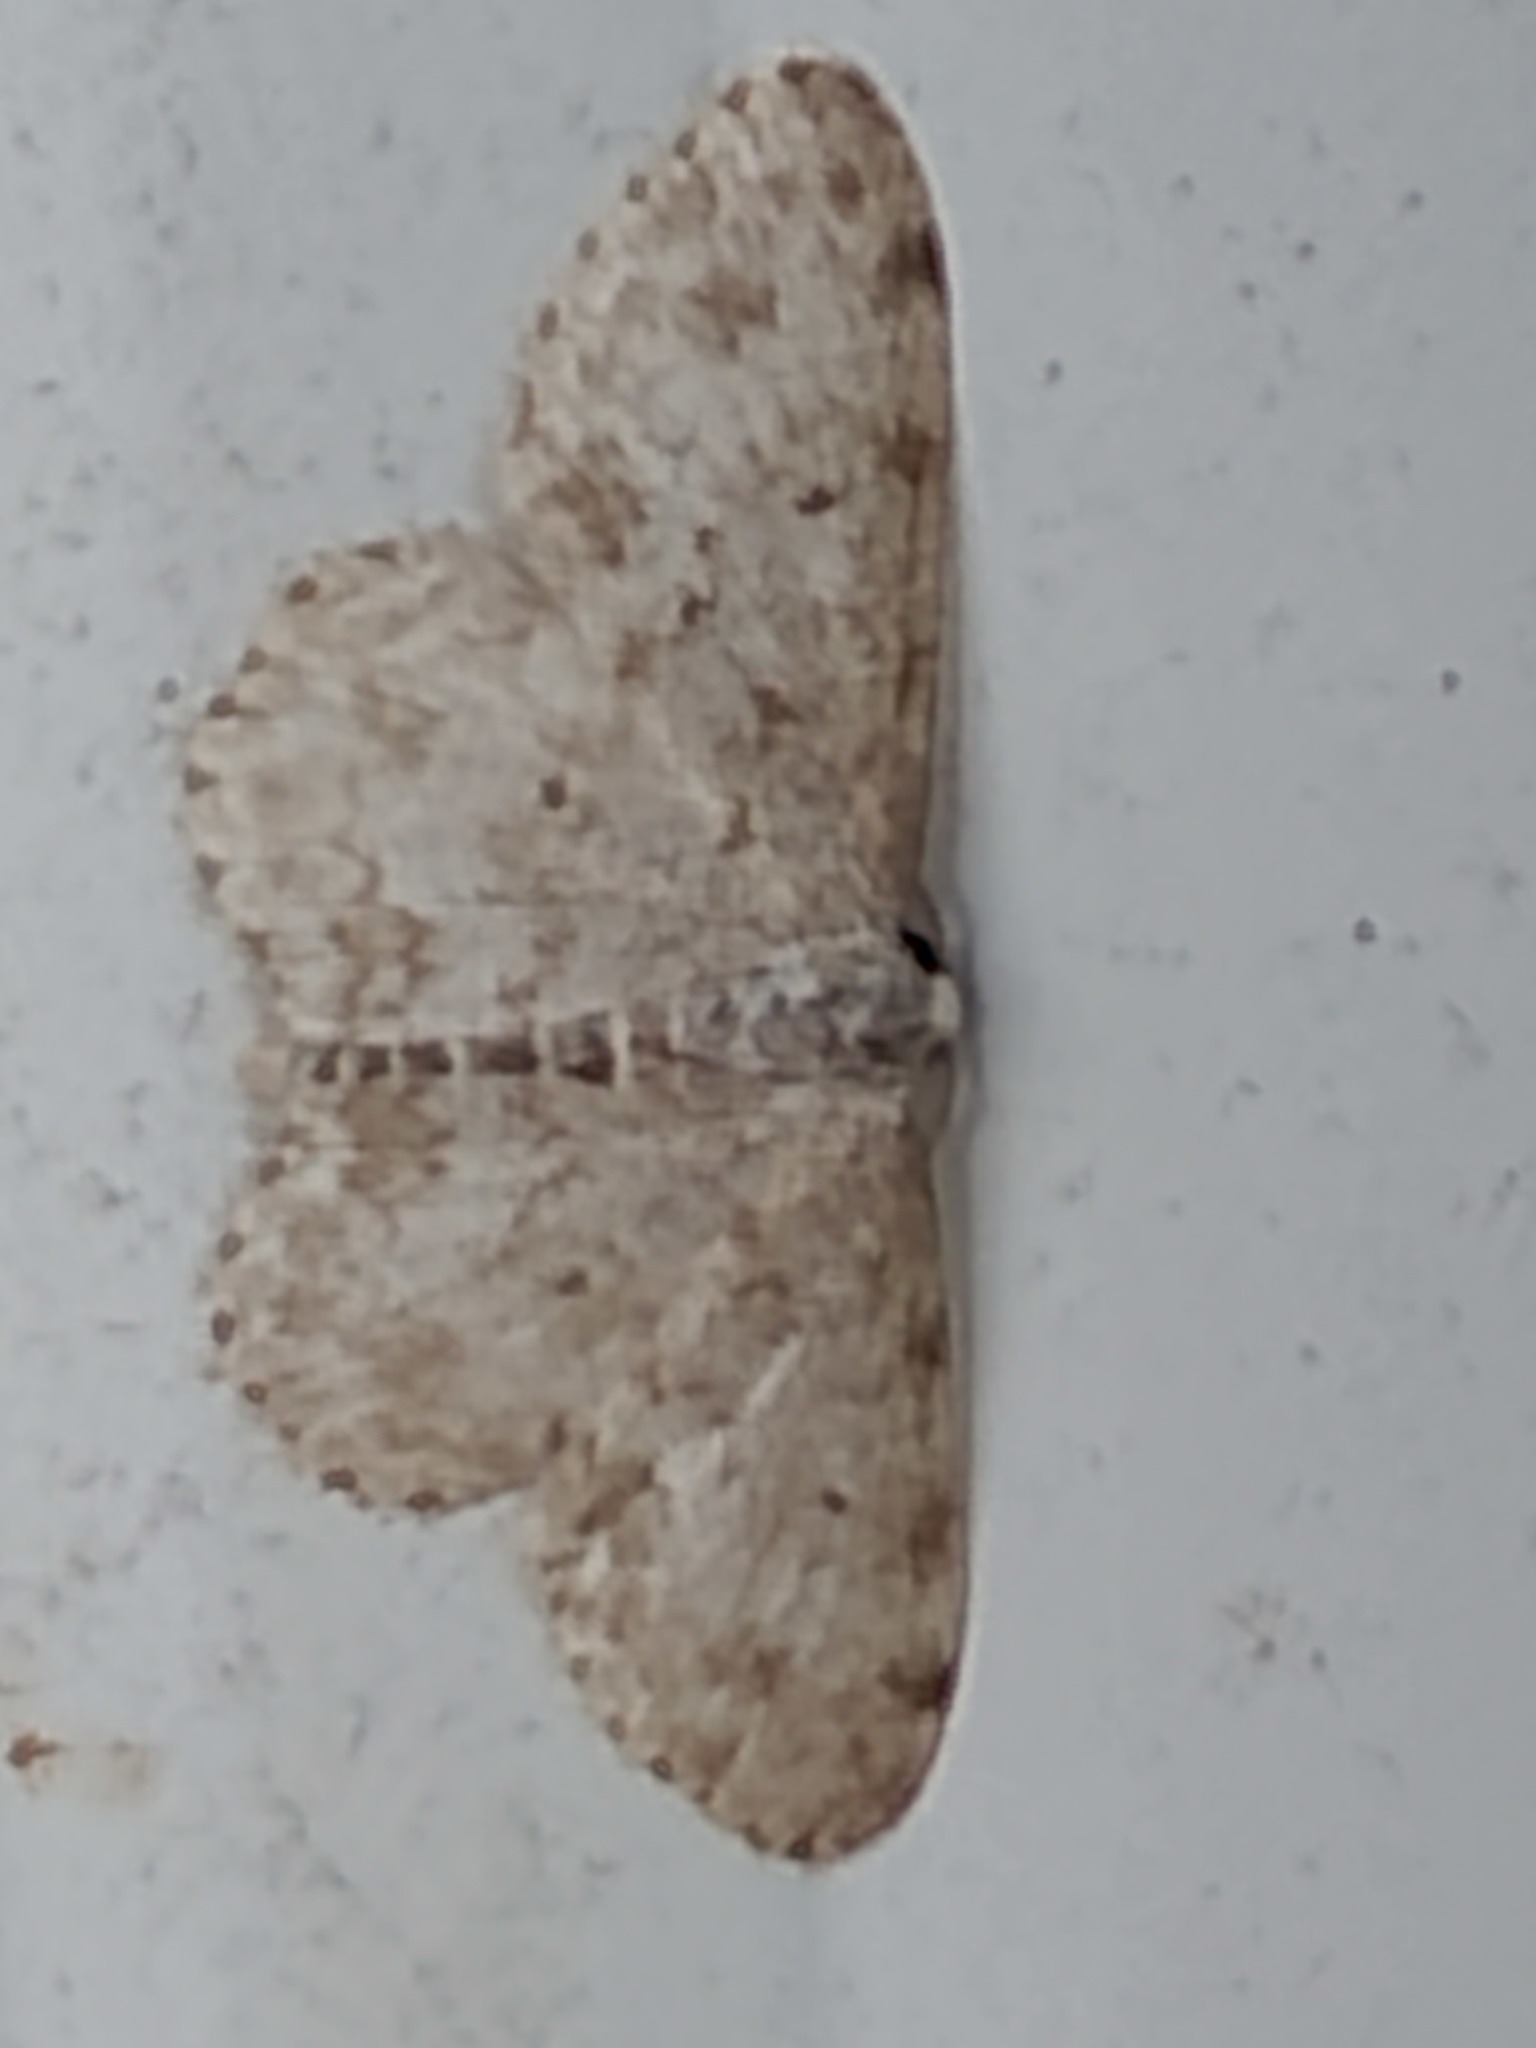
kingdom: Animalia
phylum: Arthropoda
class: Insecta
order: Lepidoptera
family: Geometridae
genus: Scopula
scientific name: Scopula plantagenaria
